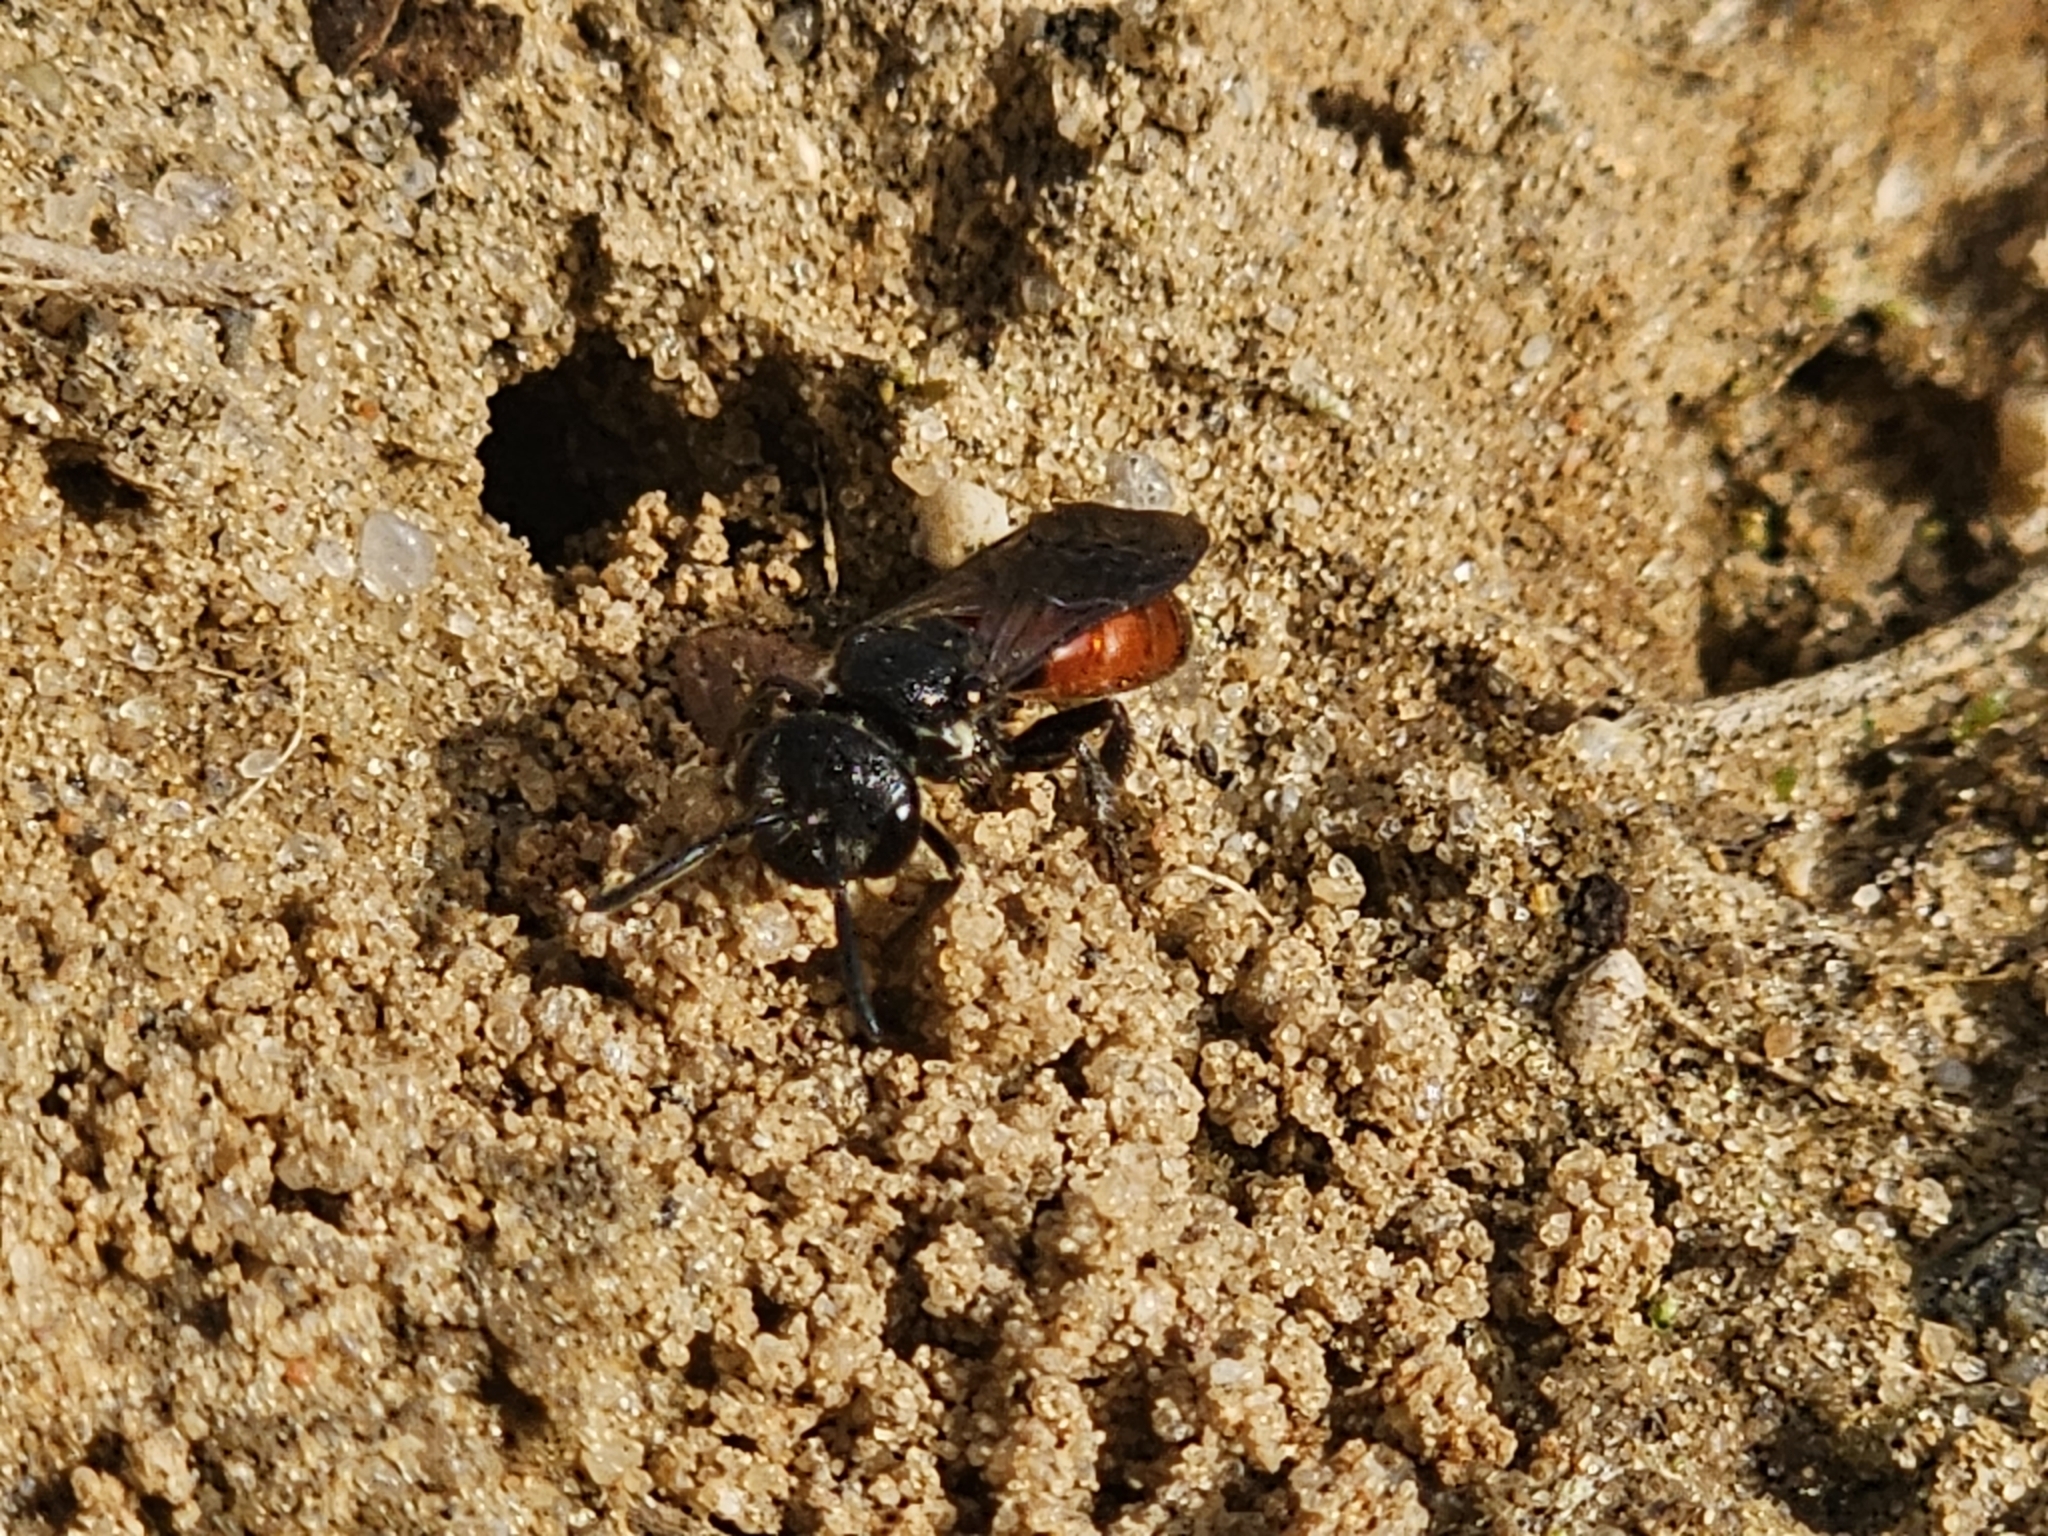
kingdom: Animalia
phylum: Arthropoda
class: Insecta
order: Hymenoptera
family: Halictidae
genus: Sphecodes
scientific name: Sphecodes albilabris
